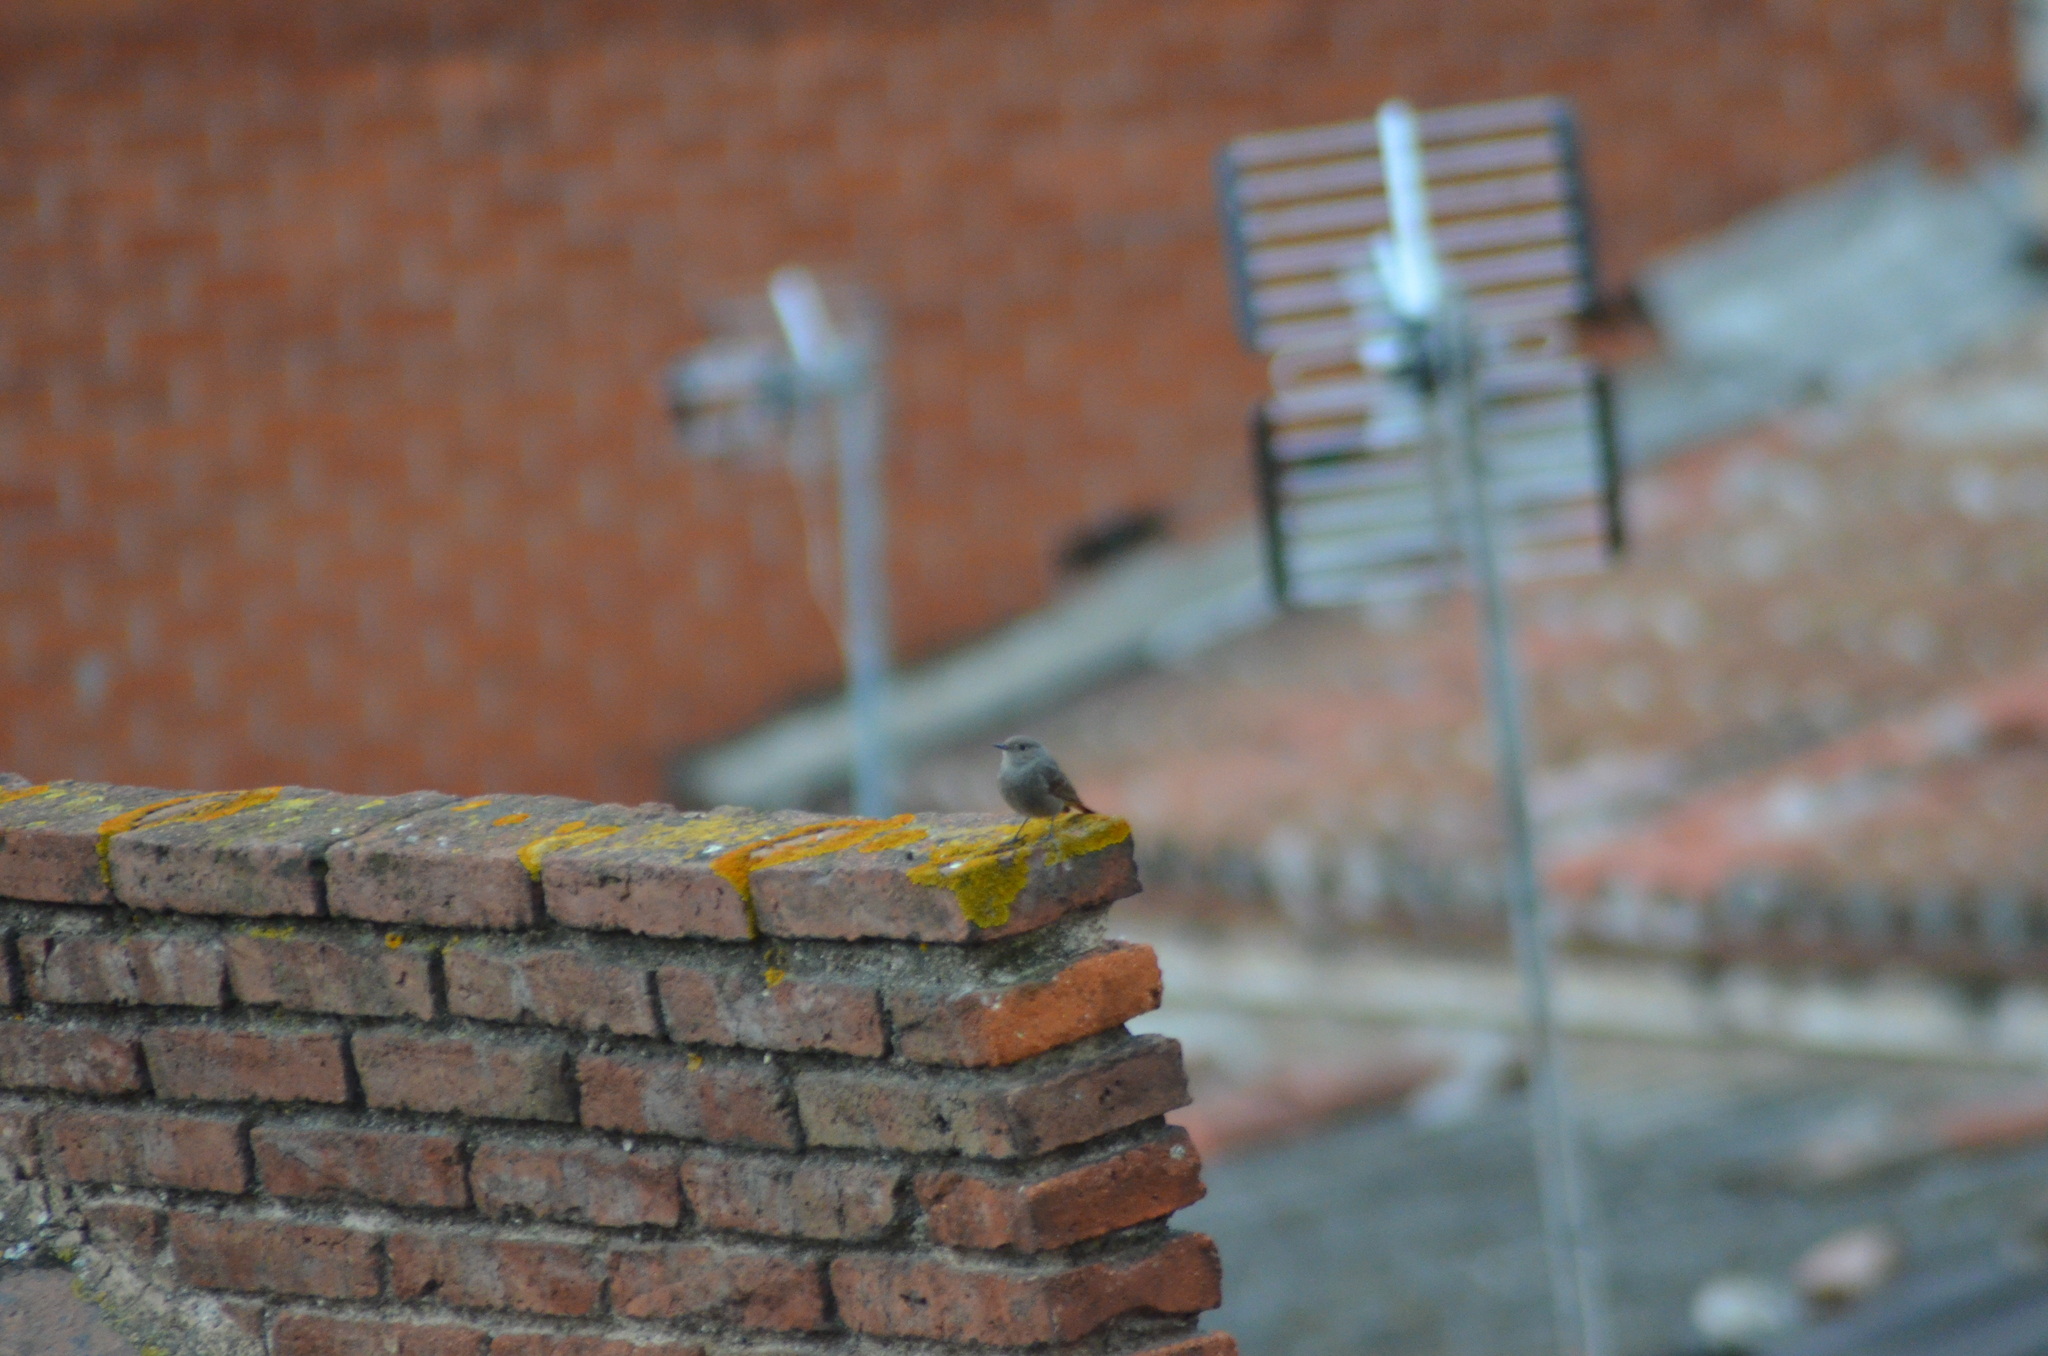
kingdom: Animalia
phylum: Chordata
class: Aves
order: Passeriformes
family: Muscicapidae
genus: Phoenicurus
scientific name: Phoenicurus ochruros
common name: Black redstart
